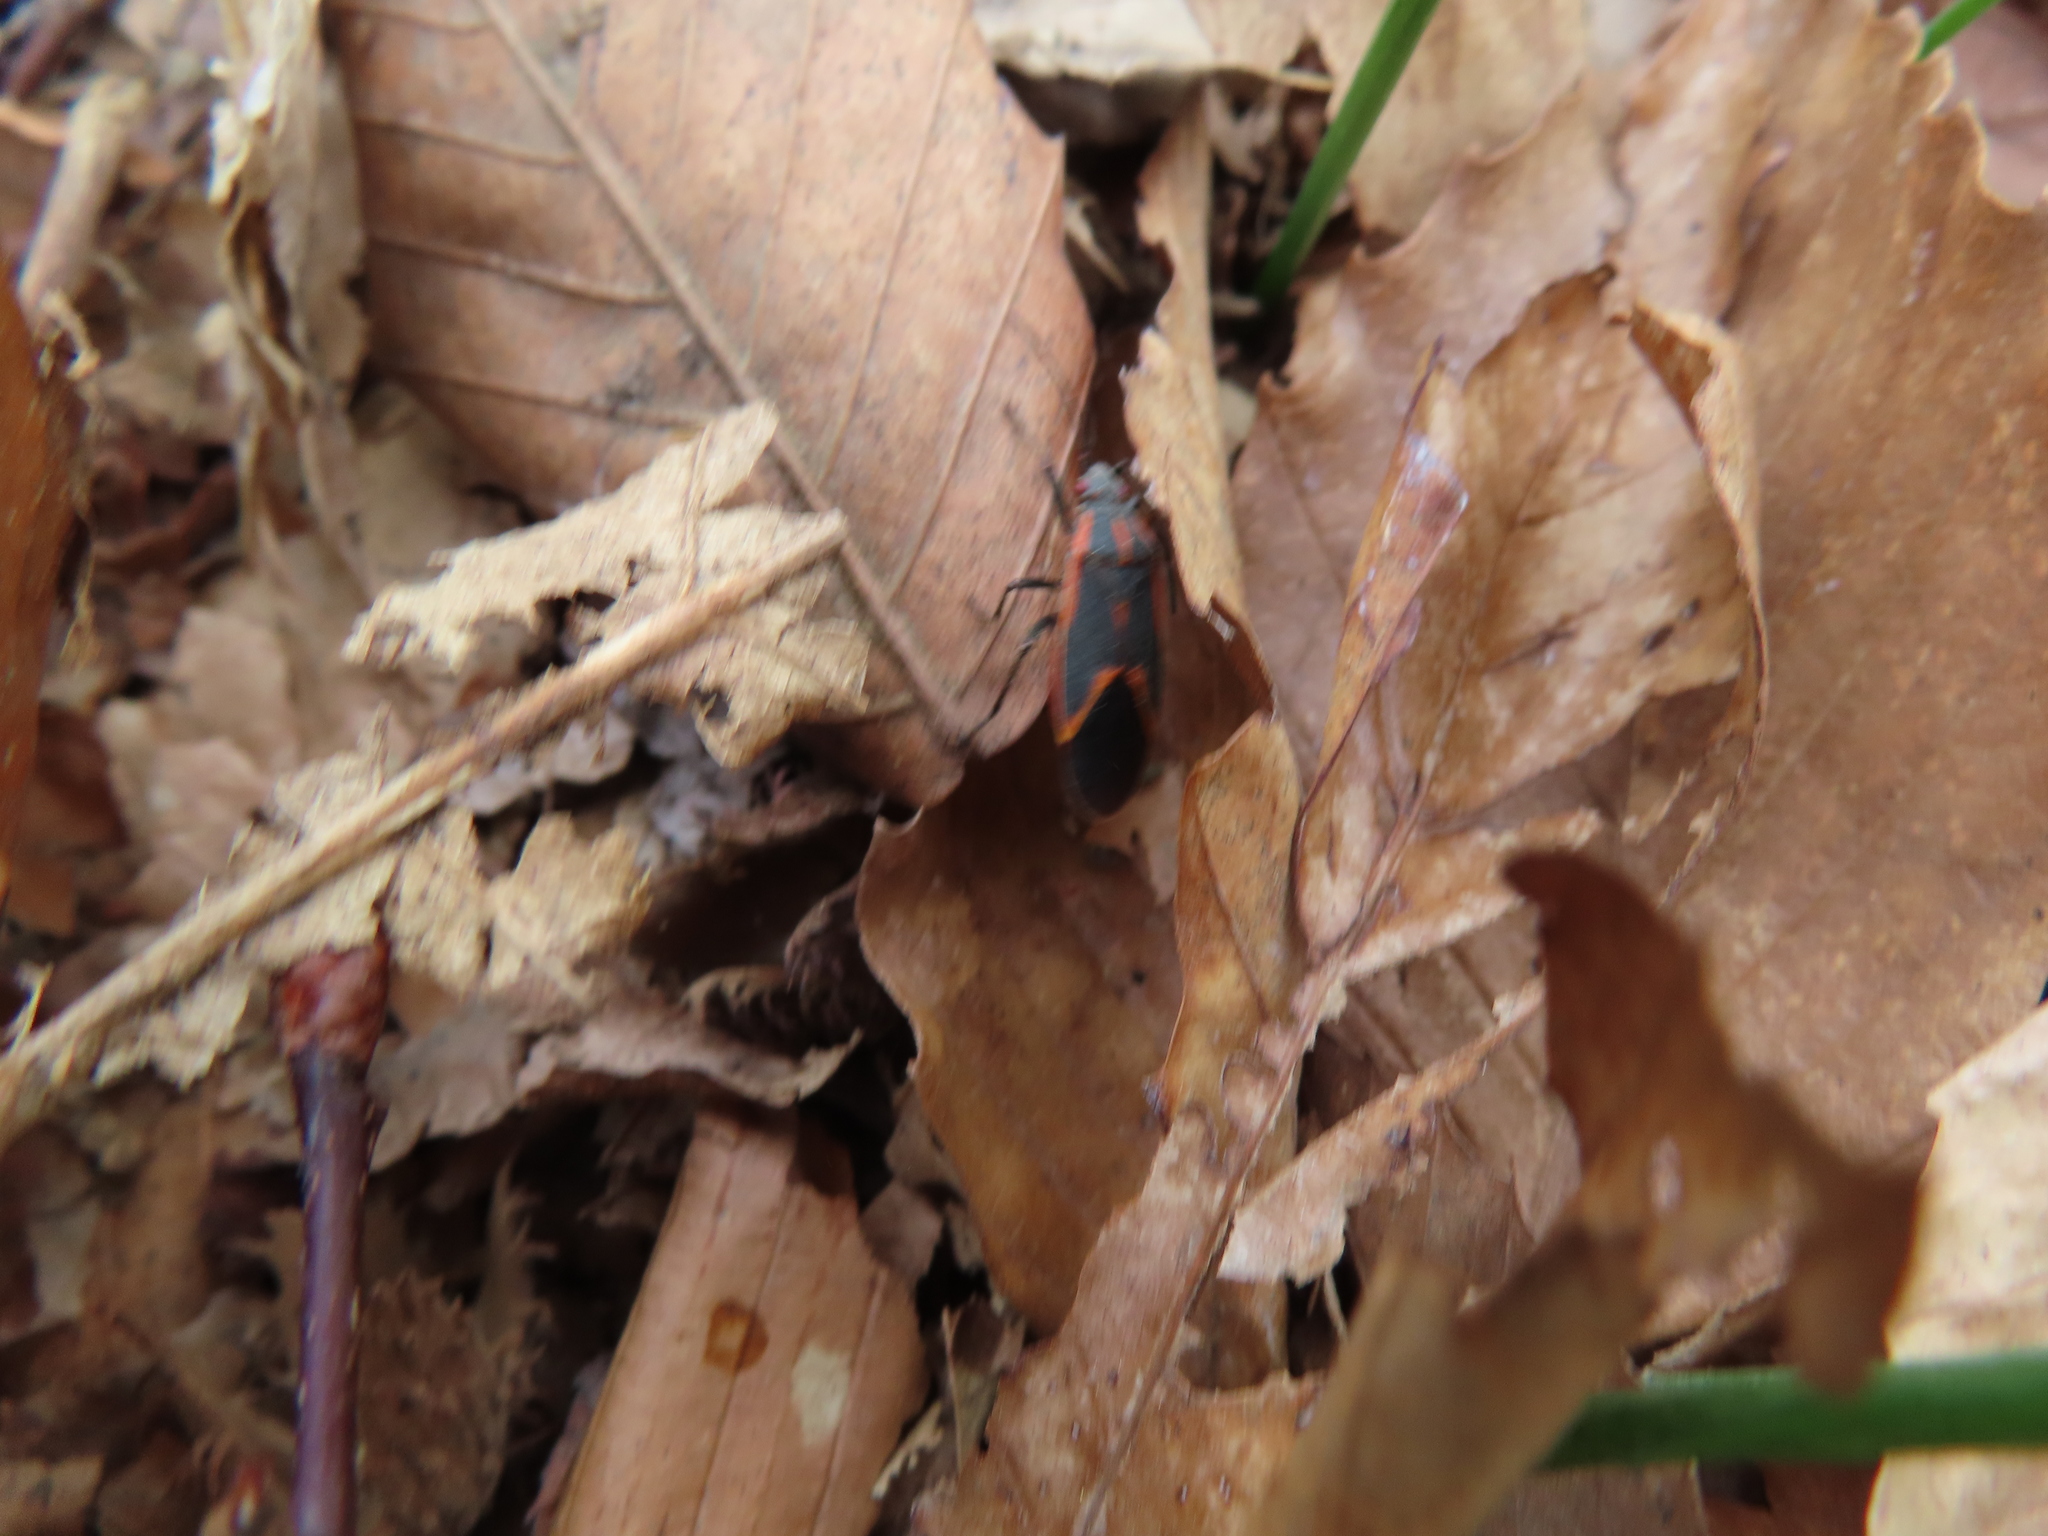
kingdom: Animalia
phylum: Arthropoda
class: Insecta
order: Hemiptera
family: Rhopalidae
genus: Boisea
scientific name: Boisea trivittata
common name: Boxelder bug
